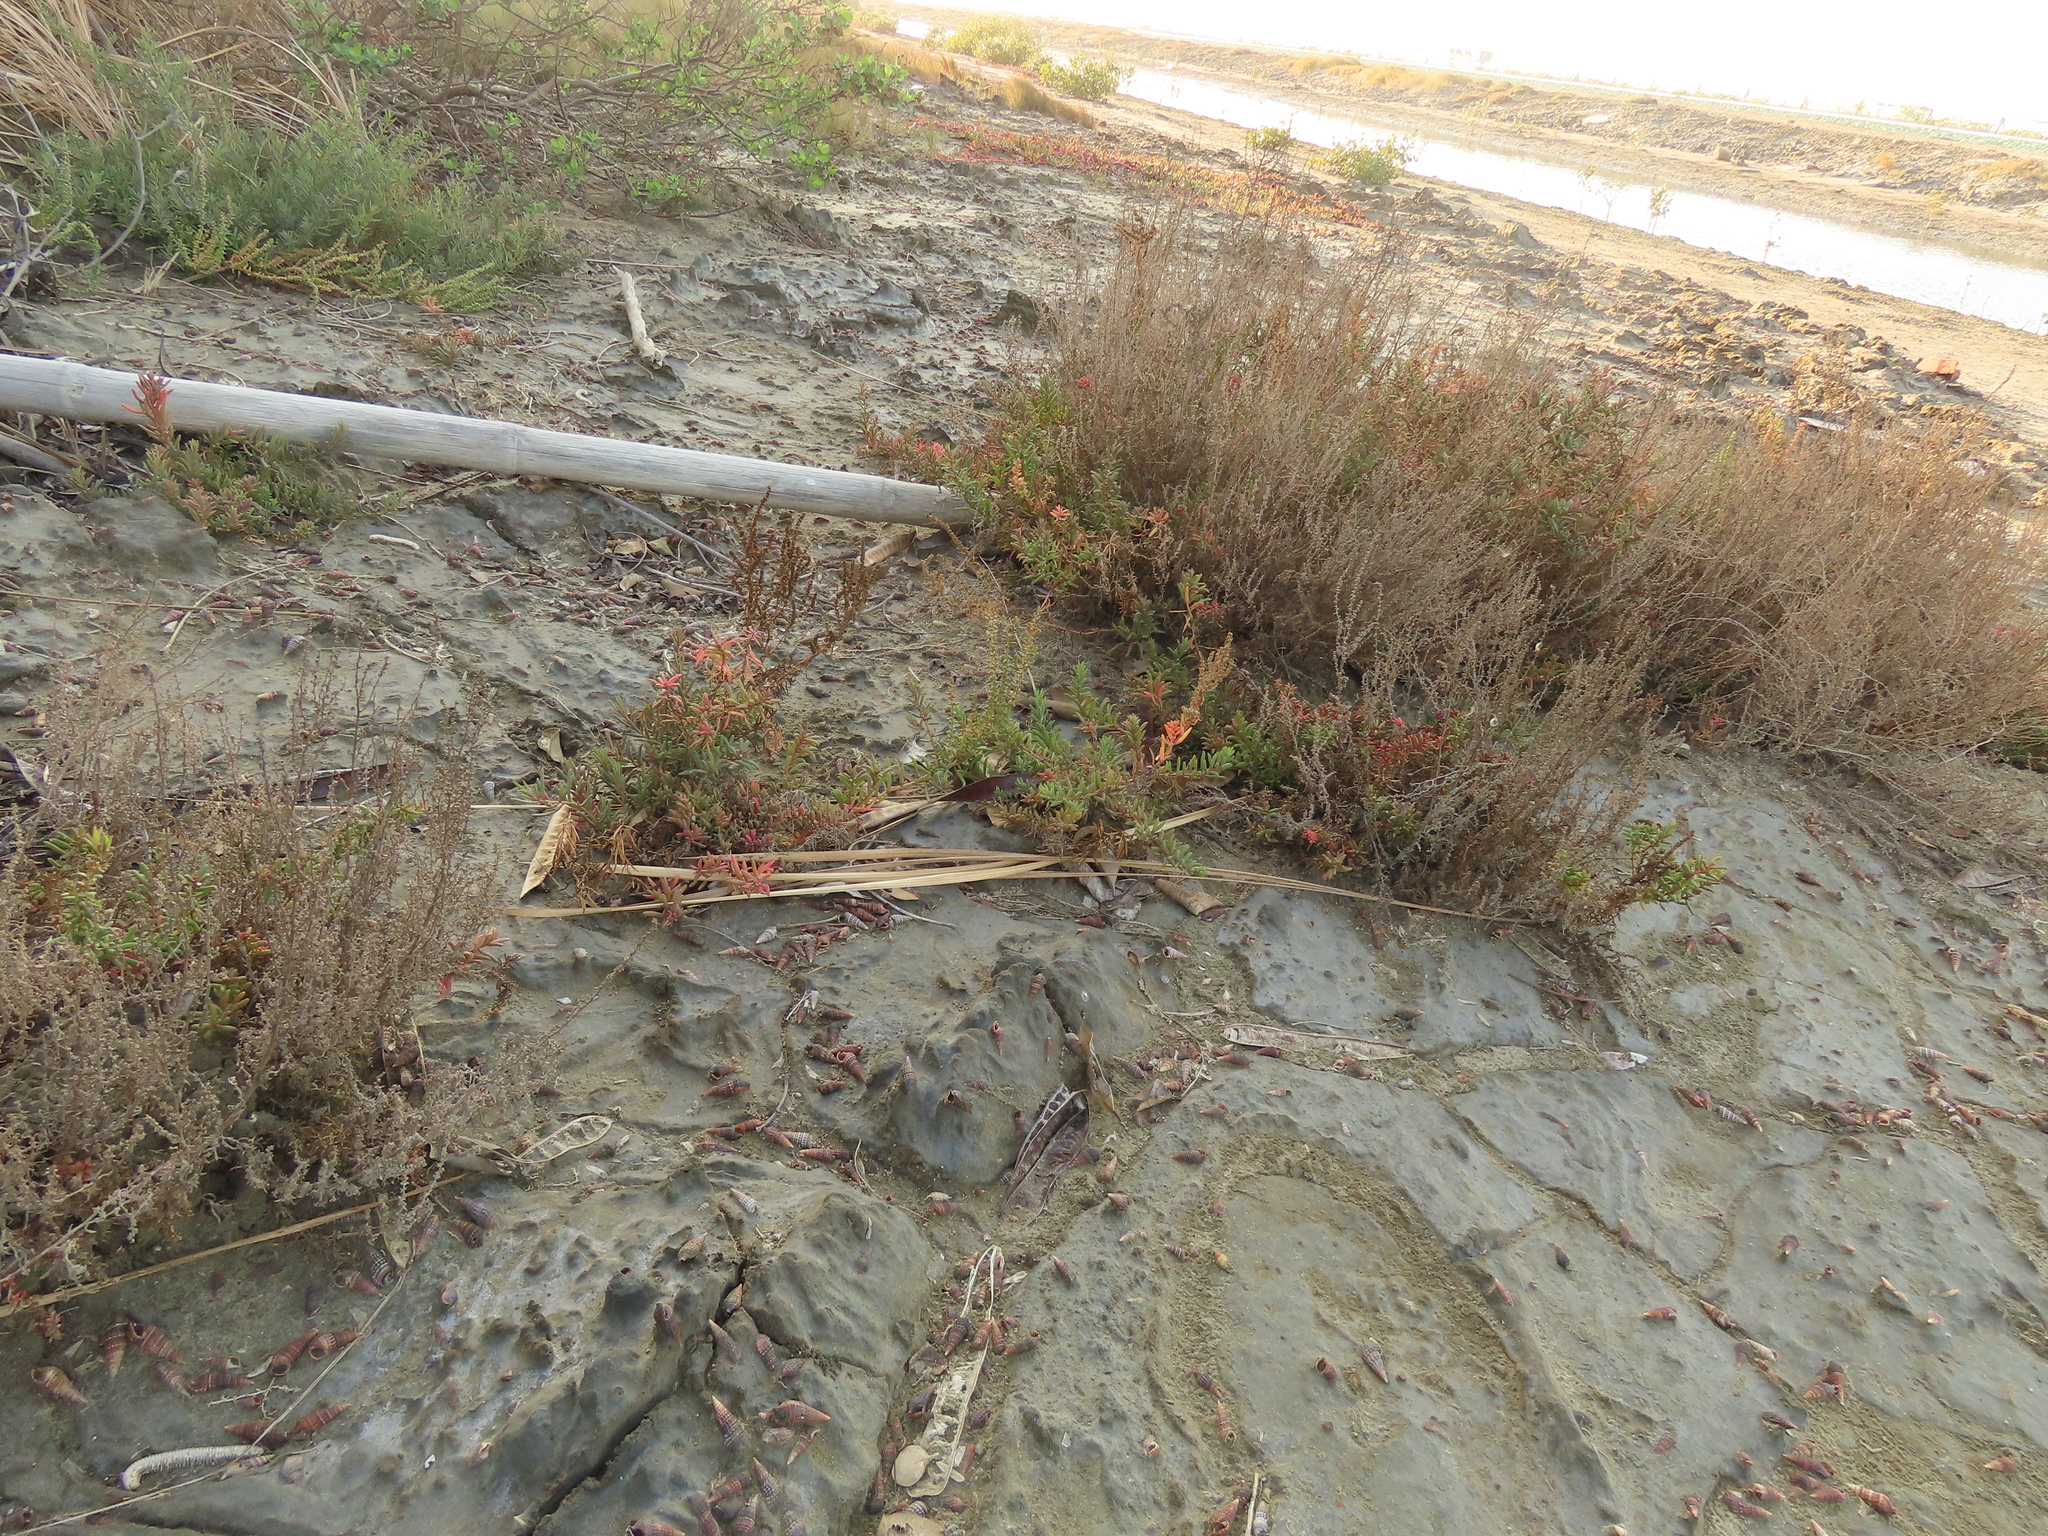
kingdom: Plantae
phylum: Tracheophyta
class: Magnoliopsida
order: Caryophyllales
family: Amaranthaceae
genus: Suaeda
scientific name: Suaeda maritima
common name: Annual sea-blite
